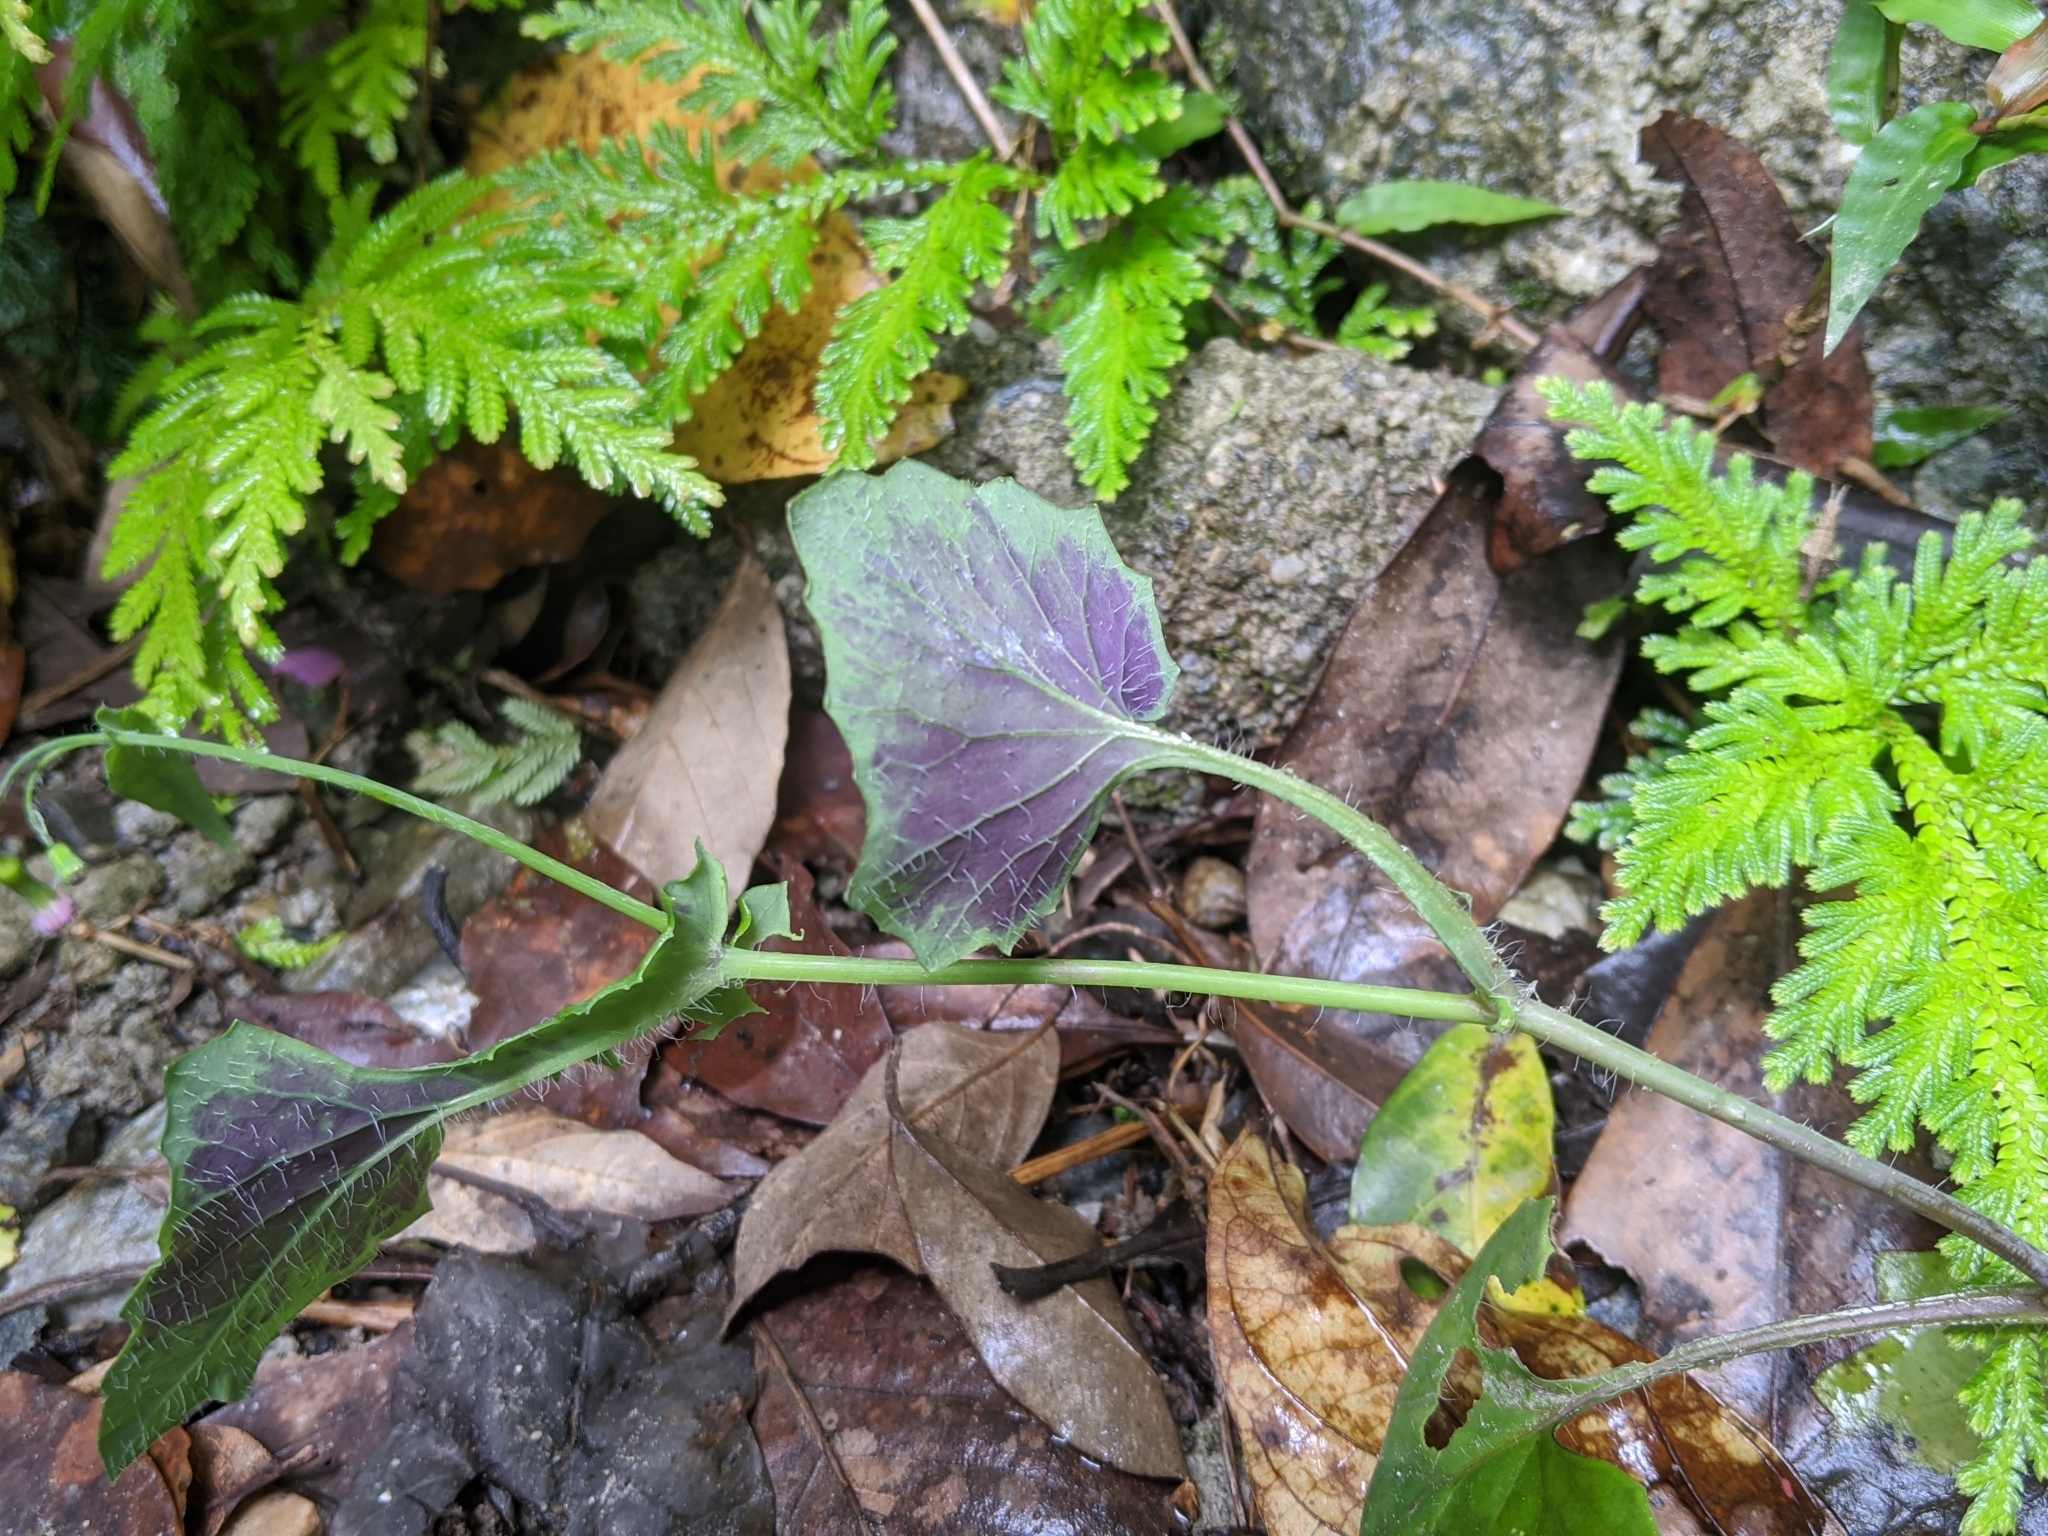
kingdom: Plantae
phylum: Tracheophyta
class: Magnoliopsida
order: Asterales
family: Asteraceae
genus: Emilia
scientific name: Emilia javanica
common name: Tassel-flower
